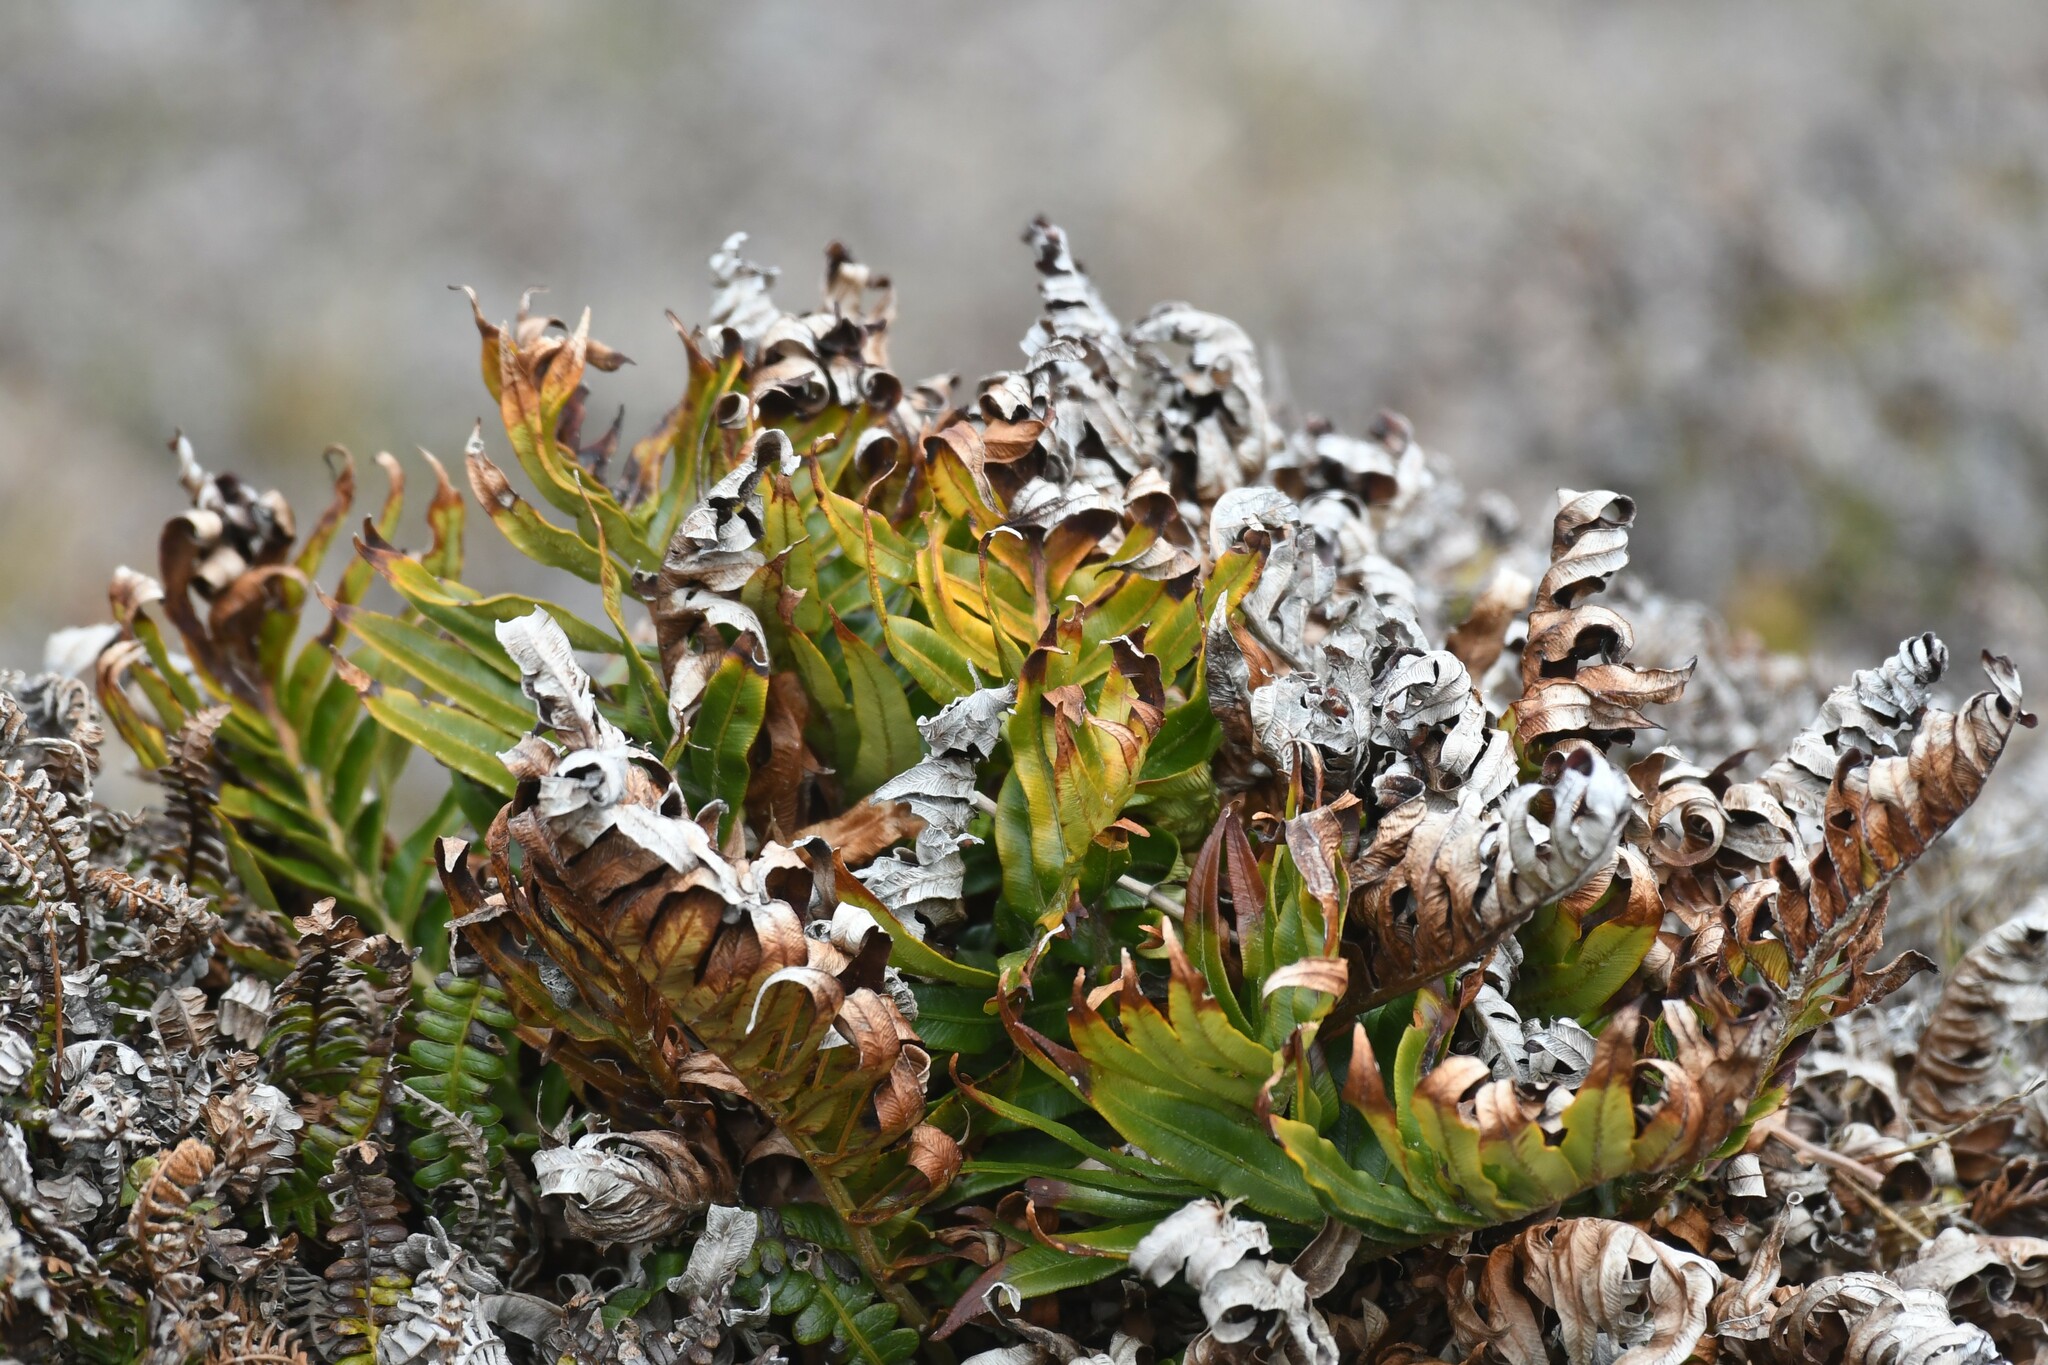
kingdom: Plantae
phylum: Tracheophyta
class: Polypodiopsida
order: Polypodiales
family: Blechnaceae
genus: Lomariocycas
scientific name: Lomariocycas magellanica
